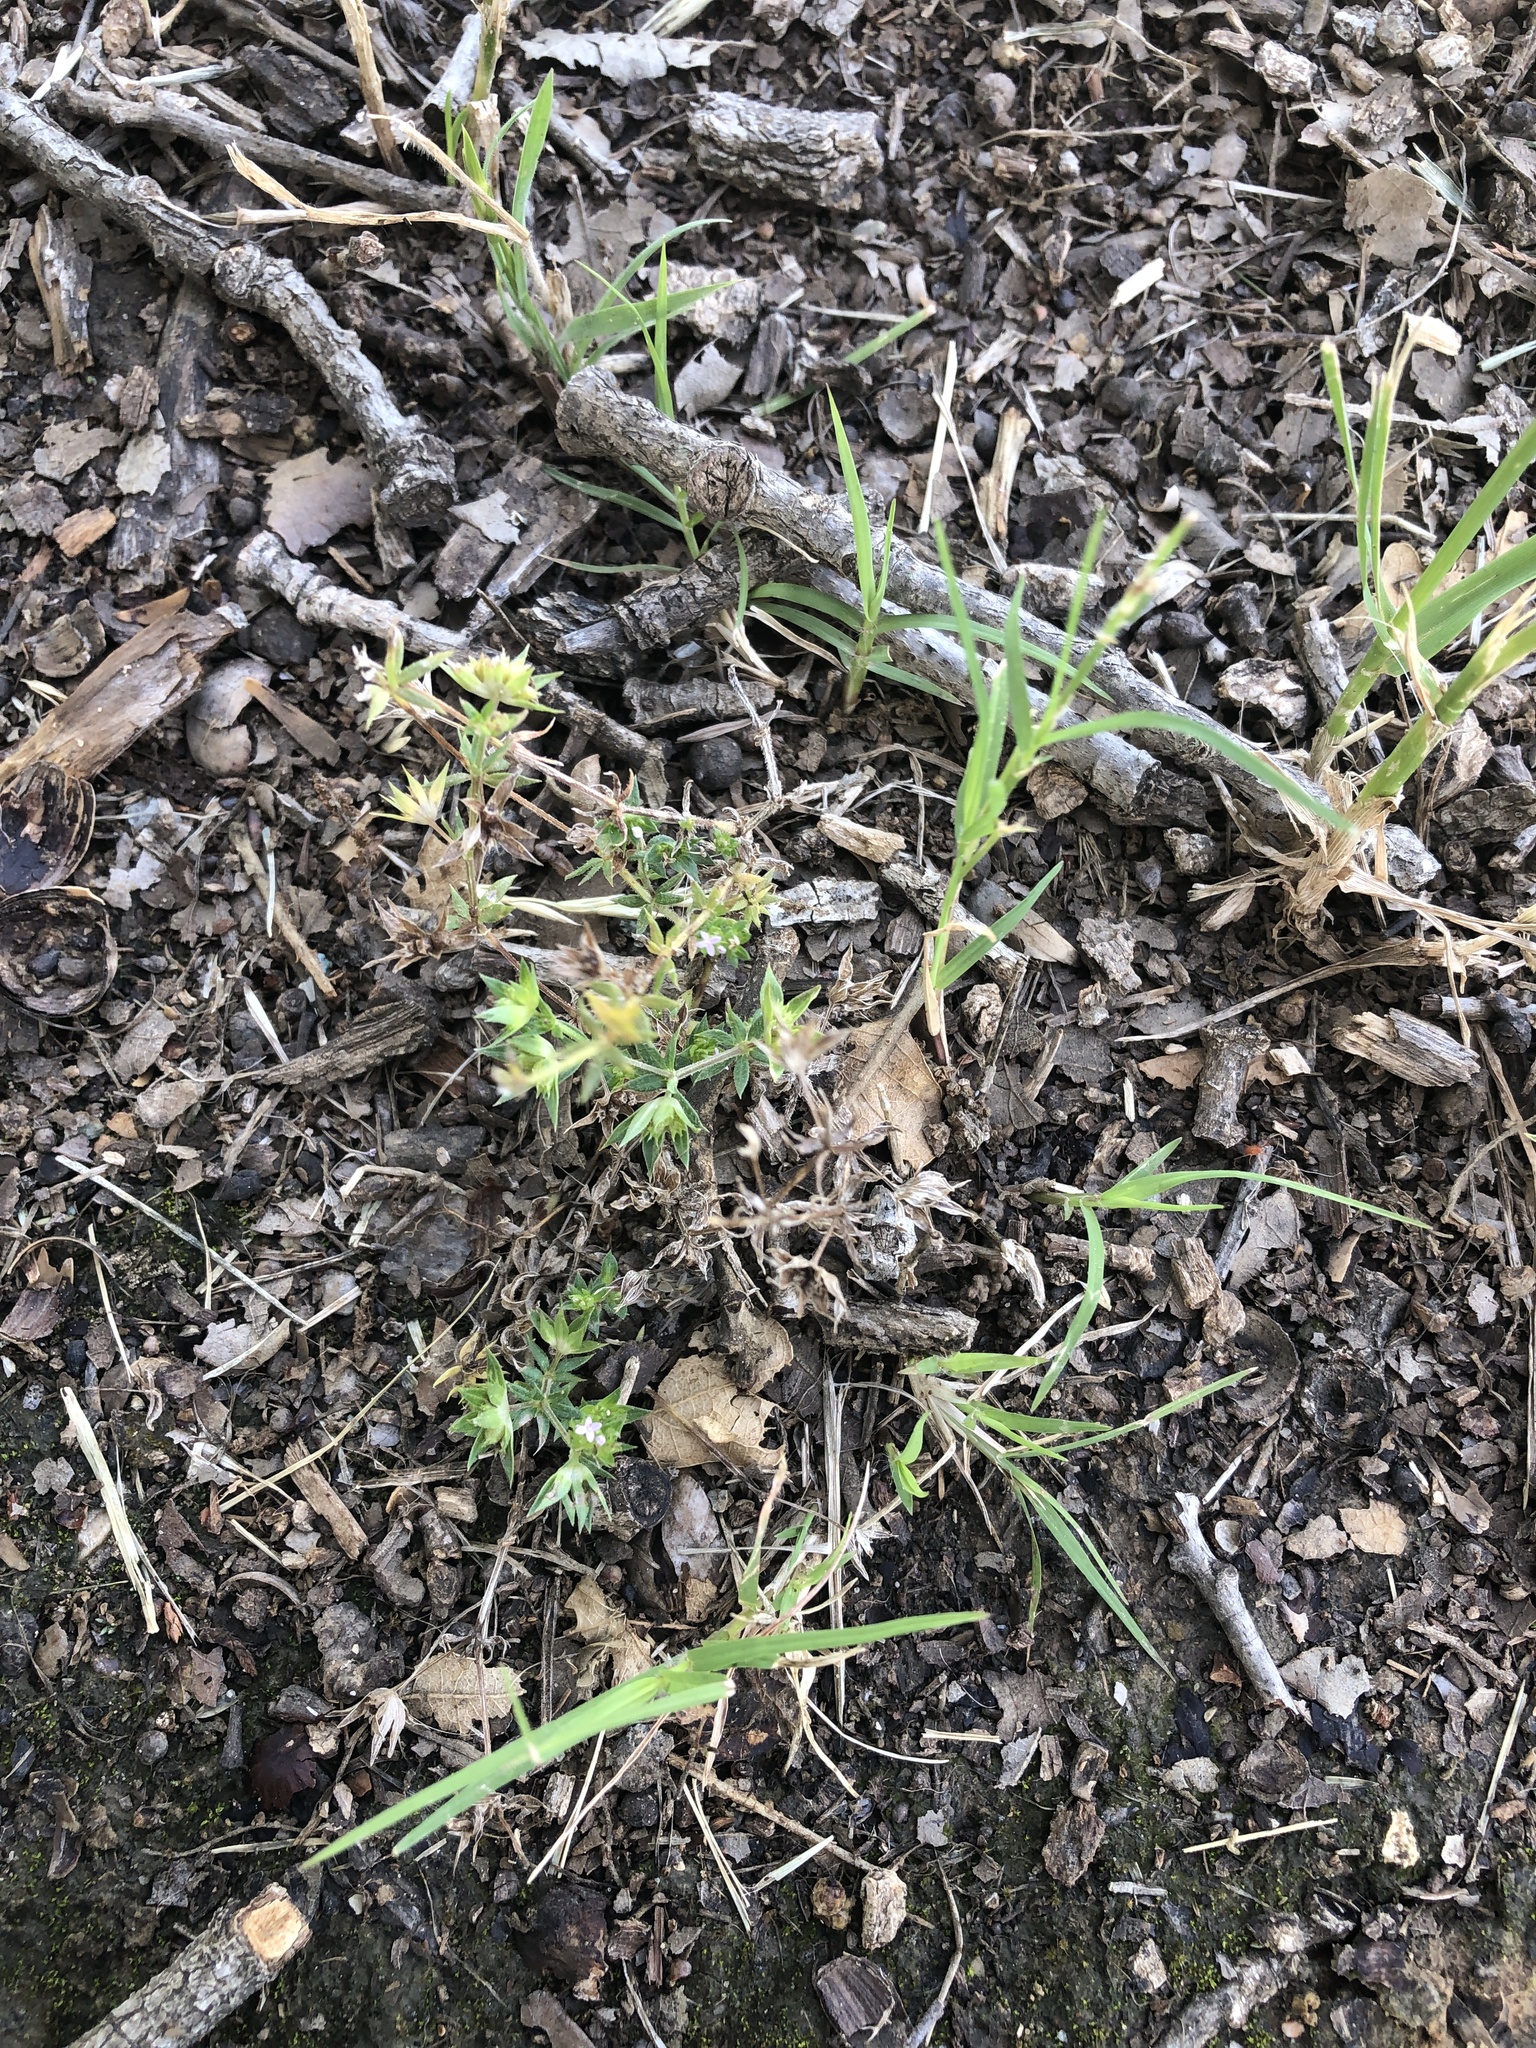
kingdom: Plantae
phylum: Tracheophyta
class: Magnoliopsida
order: Gentianales
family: Rubiaceae
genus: Sherardia
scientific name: Sherardia arvensis
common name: Field madder
